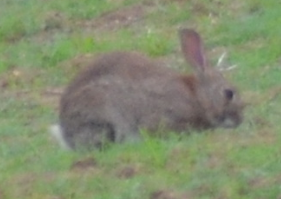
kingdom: Animalia
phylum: Chordata
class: Mammalia
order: Lagomorpha
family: Leporidae
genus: Oryctolagus
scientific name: Oryctolagus cuniculus
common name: European rabbit
